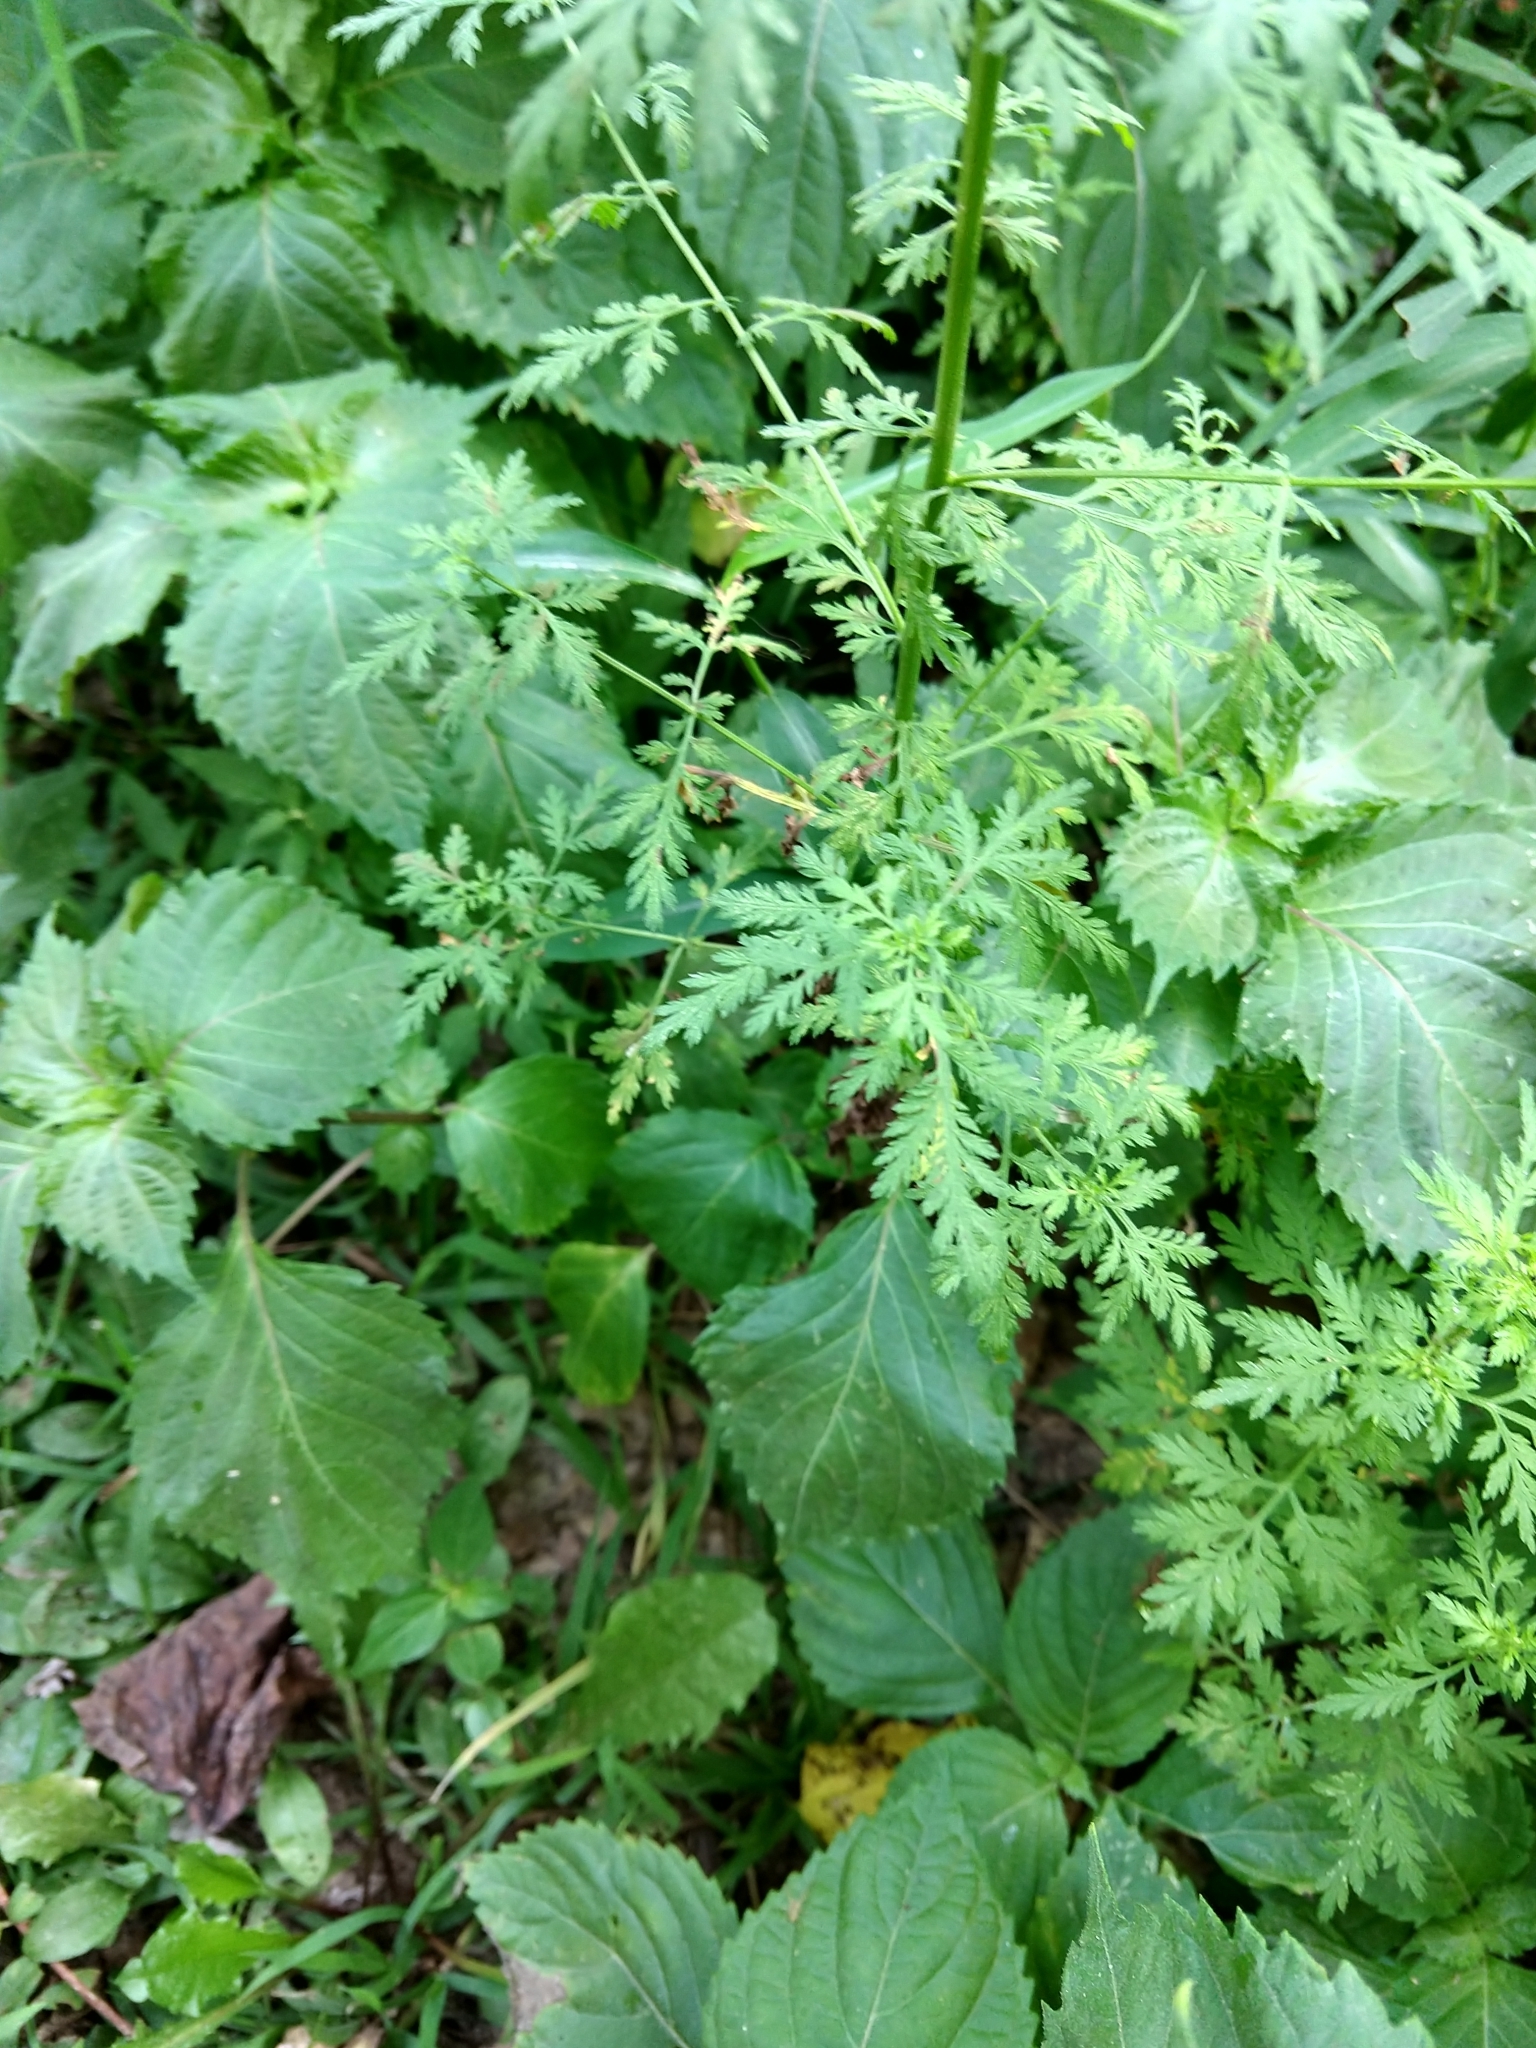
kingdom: Plantae
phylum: Tracheophyta
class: Magnoliopsida
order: Asterales
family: Asteraceae
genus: Artemisia
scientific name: Artemisia annua
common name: Sweet sagewort
